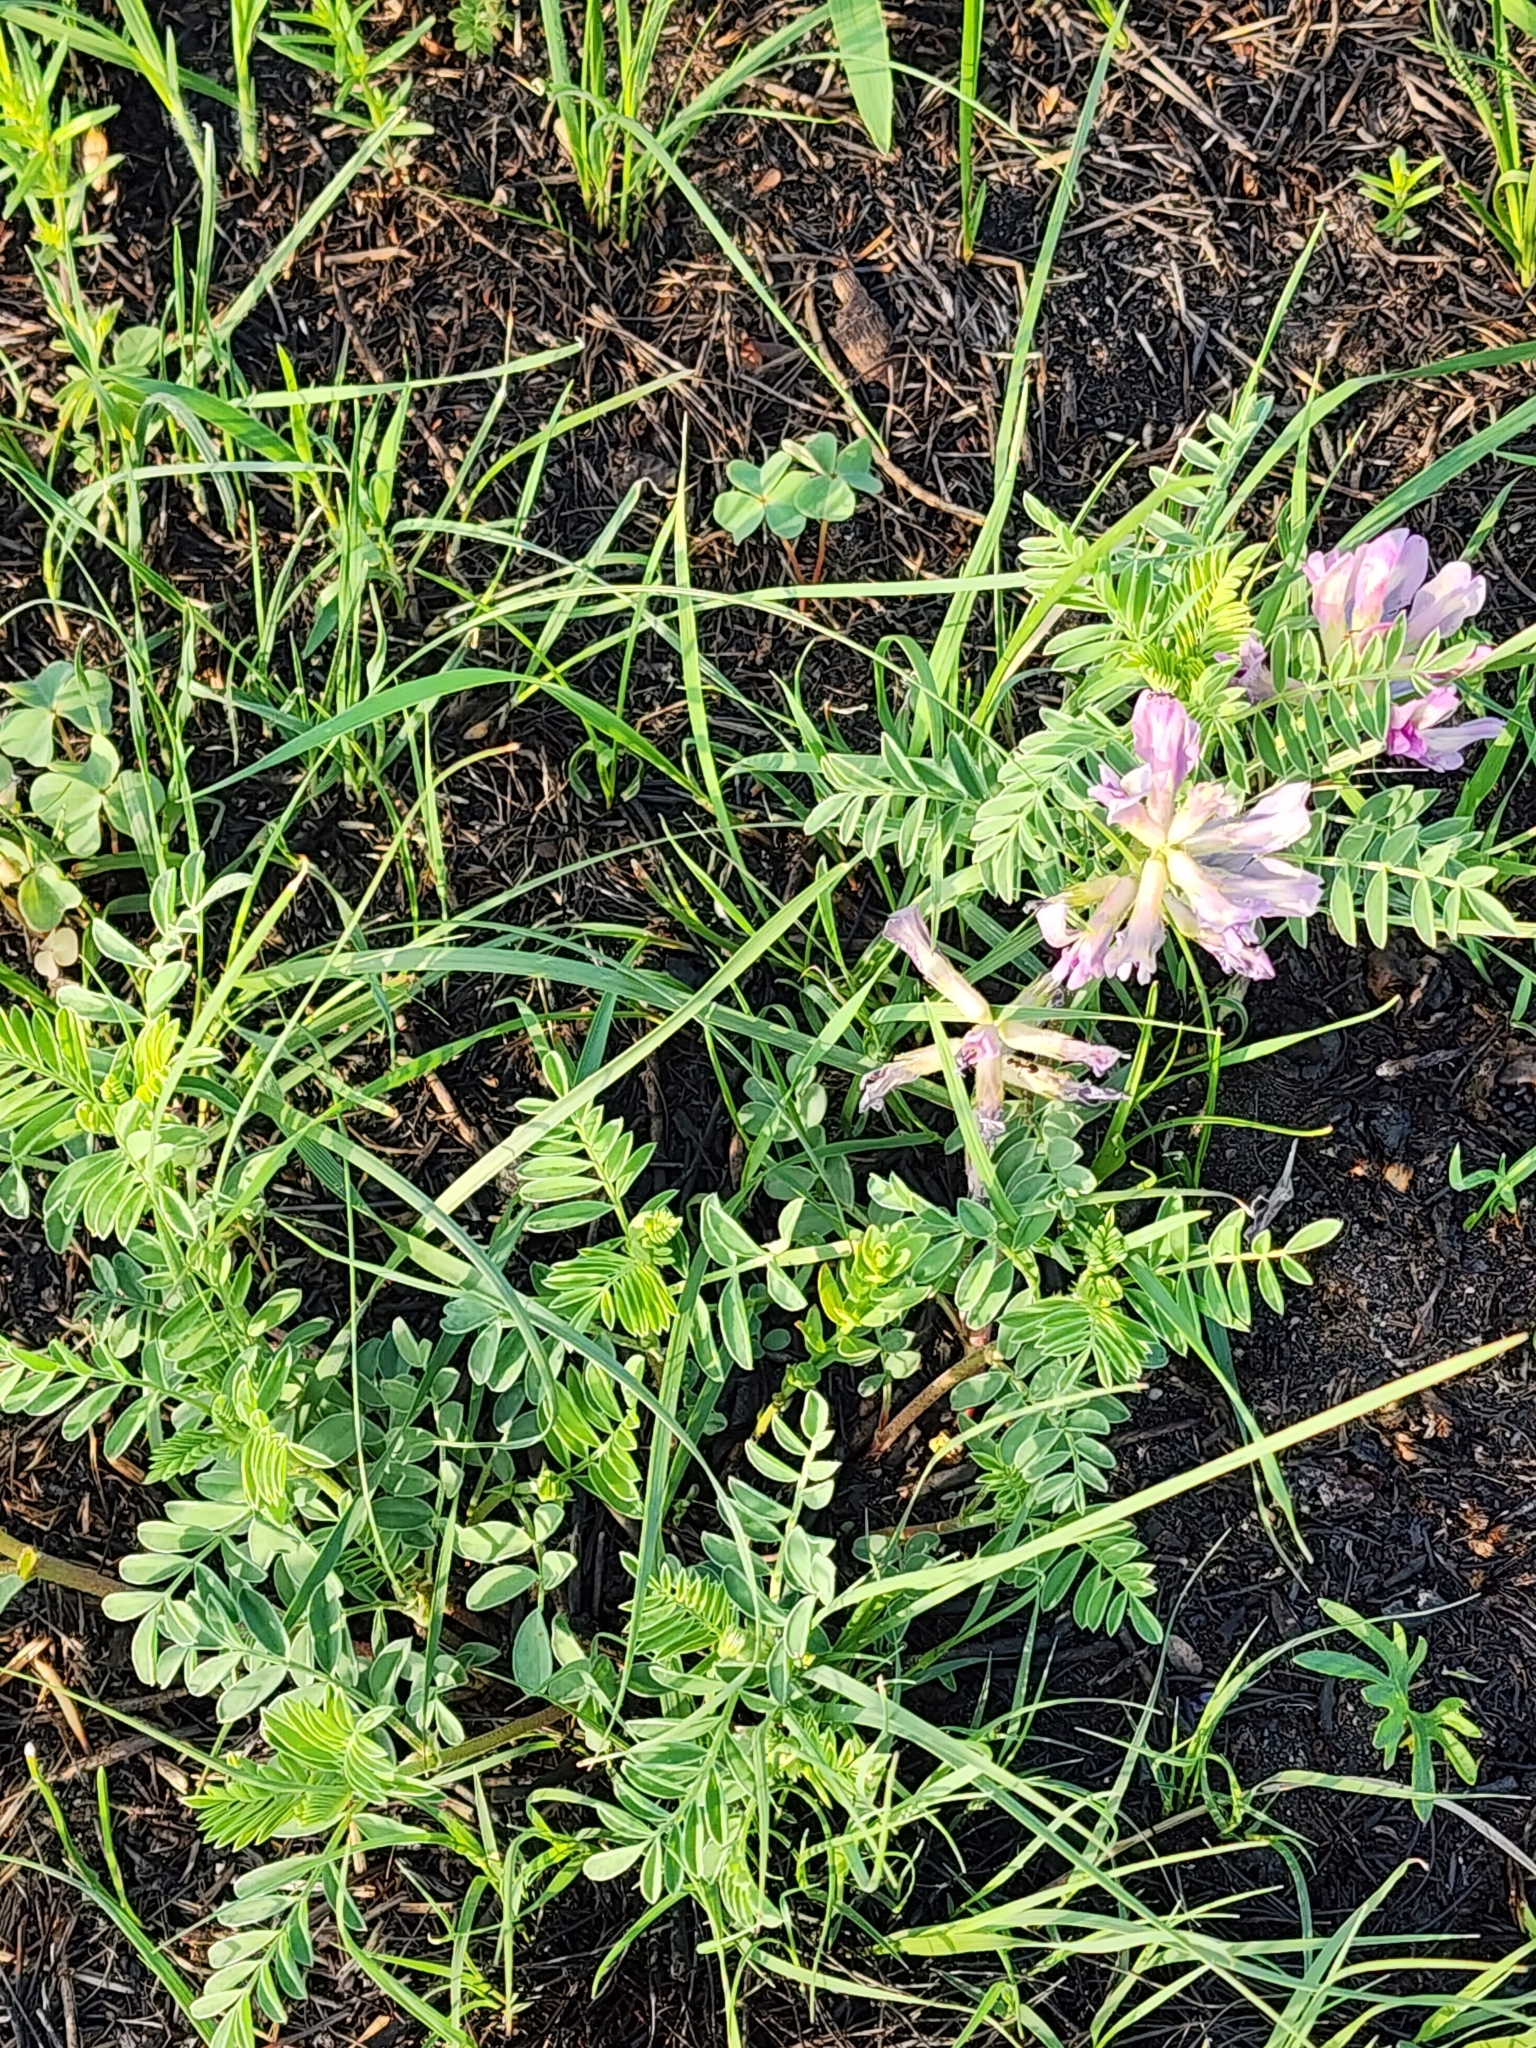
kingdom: Plantae
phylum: Tracheophyta
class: Magnoliopsida
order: Fabales
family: Fabaceae
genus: Astragalus
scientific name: Astragalus crassicarpus
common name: Ground-plum milk-vetch
